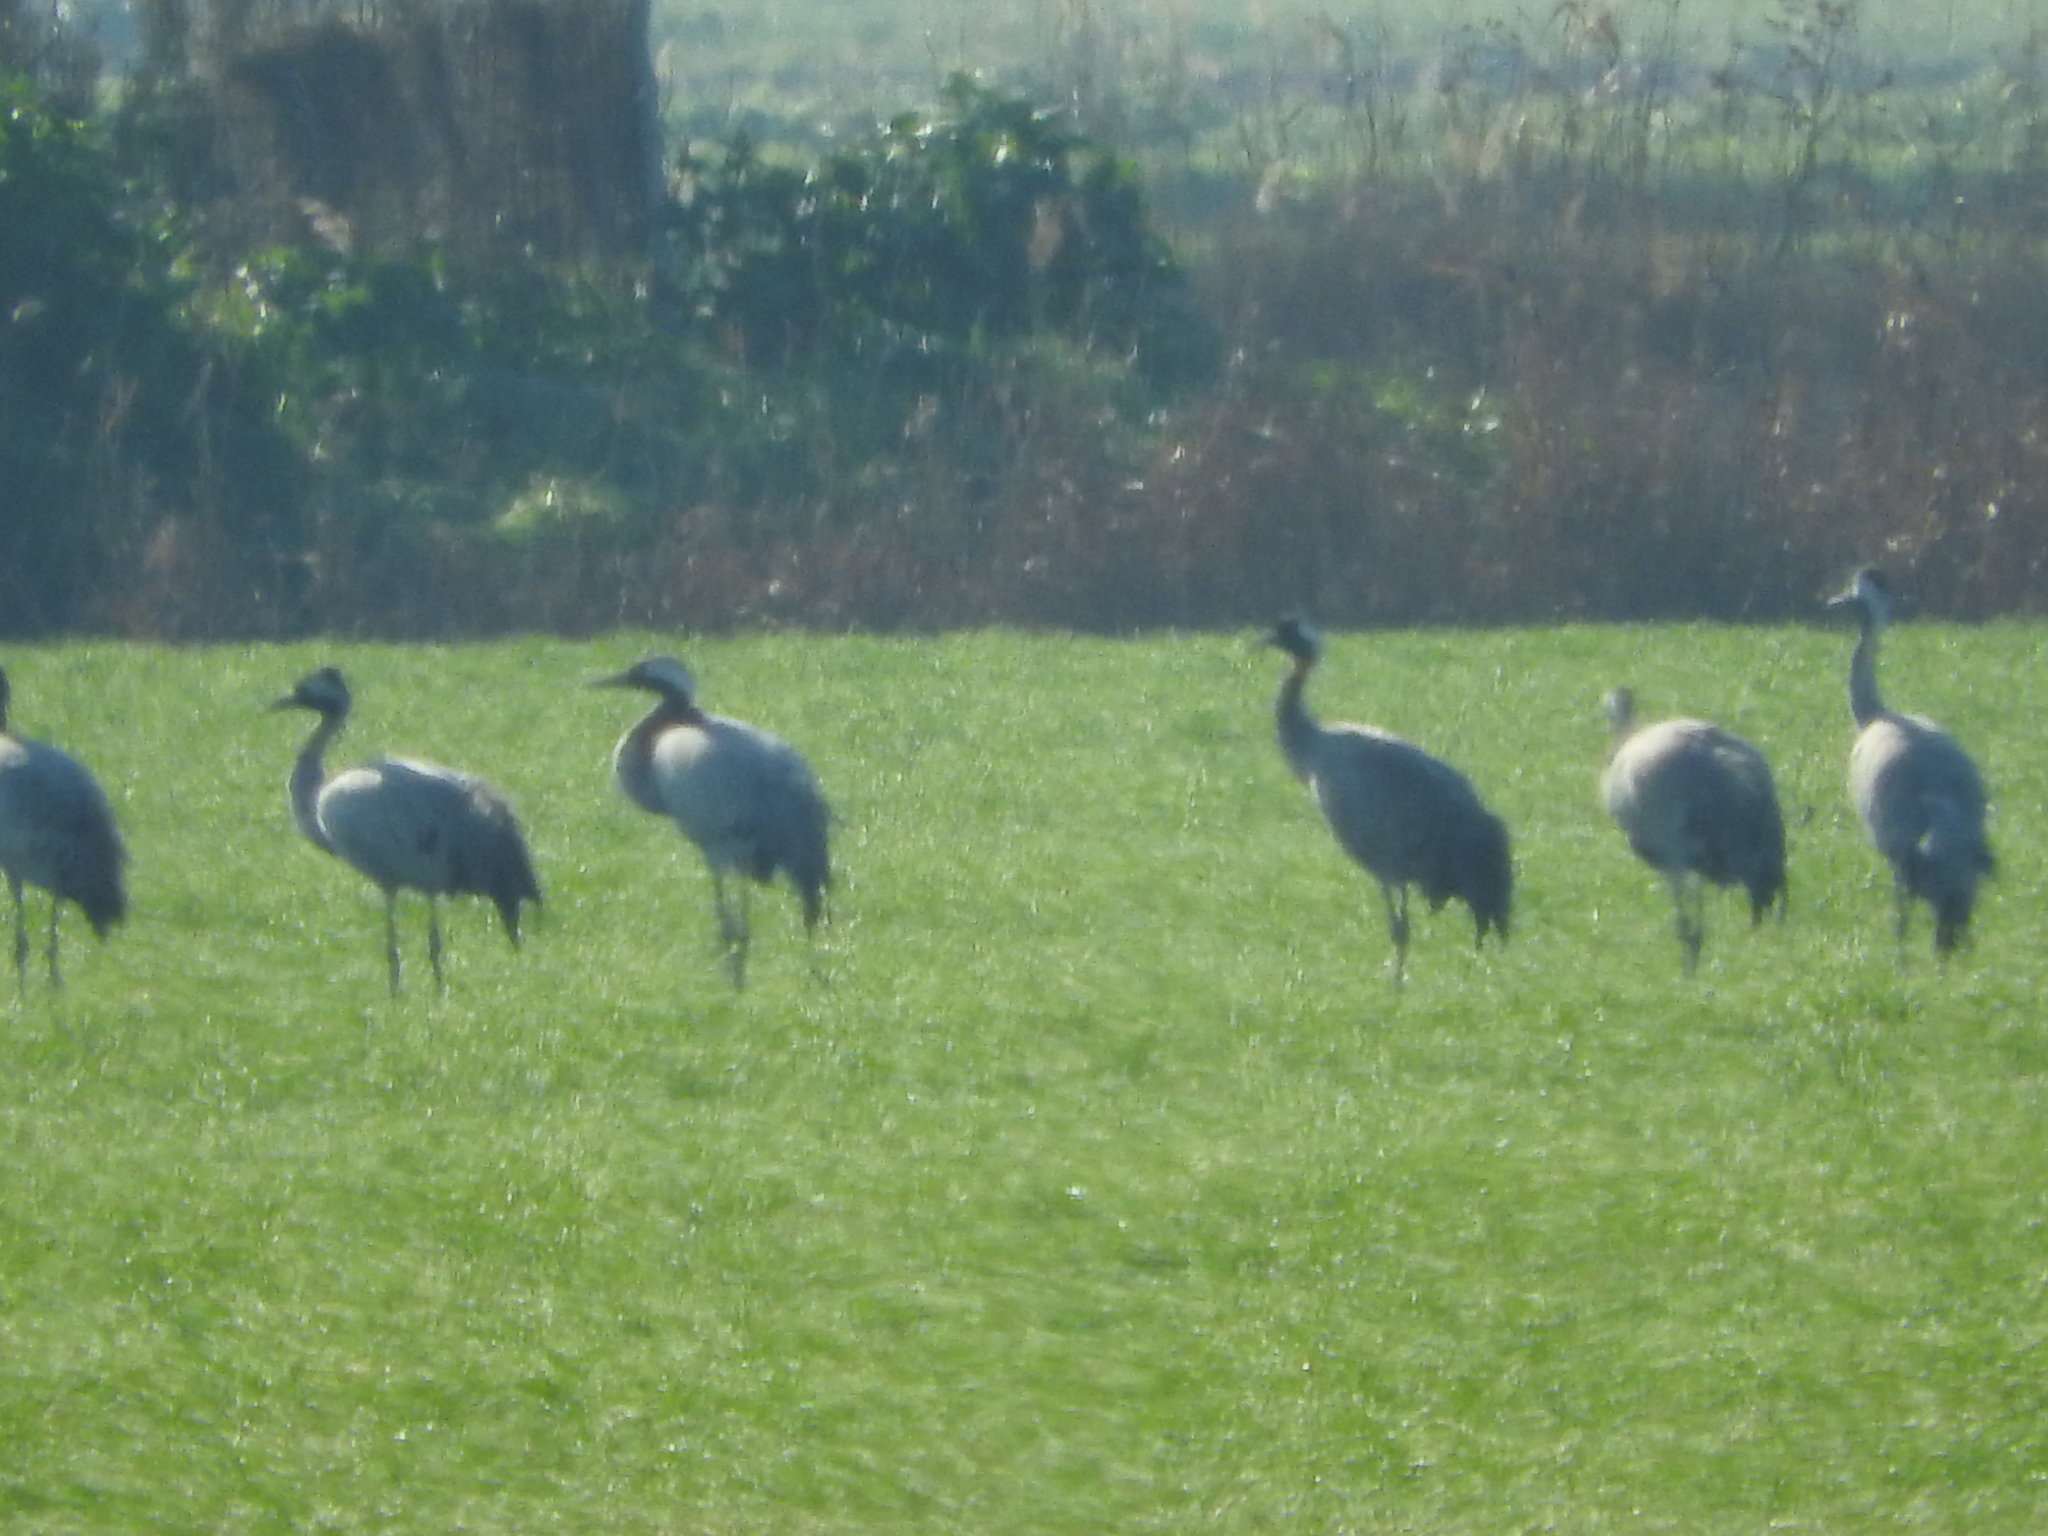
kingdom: Animalia
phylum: Chordata
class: Aves
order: Gruiformes
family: Gruidae
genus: Grus
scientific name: Grus grus
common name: Common crane
